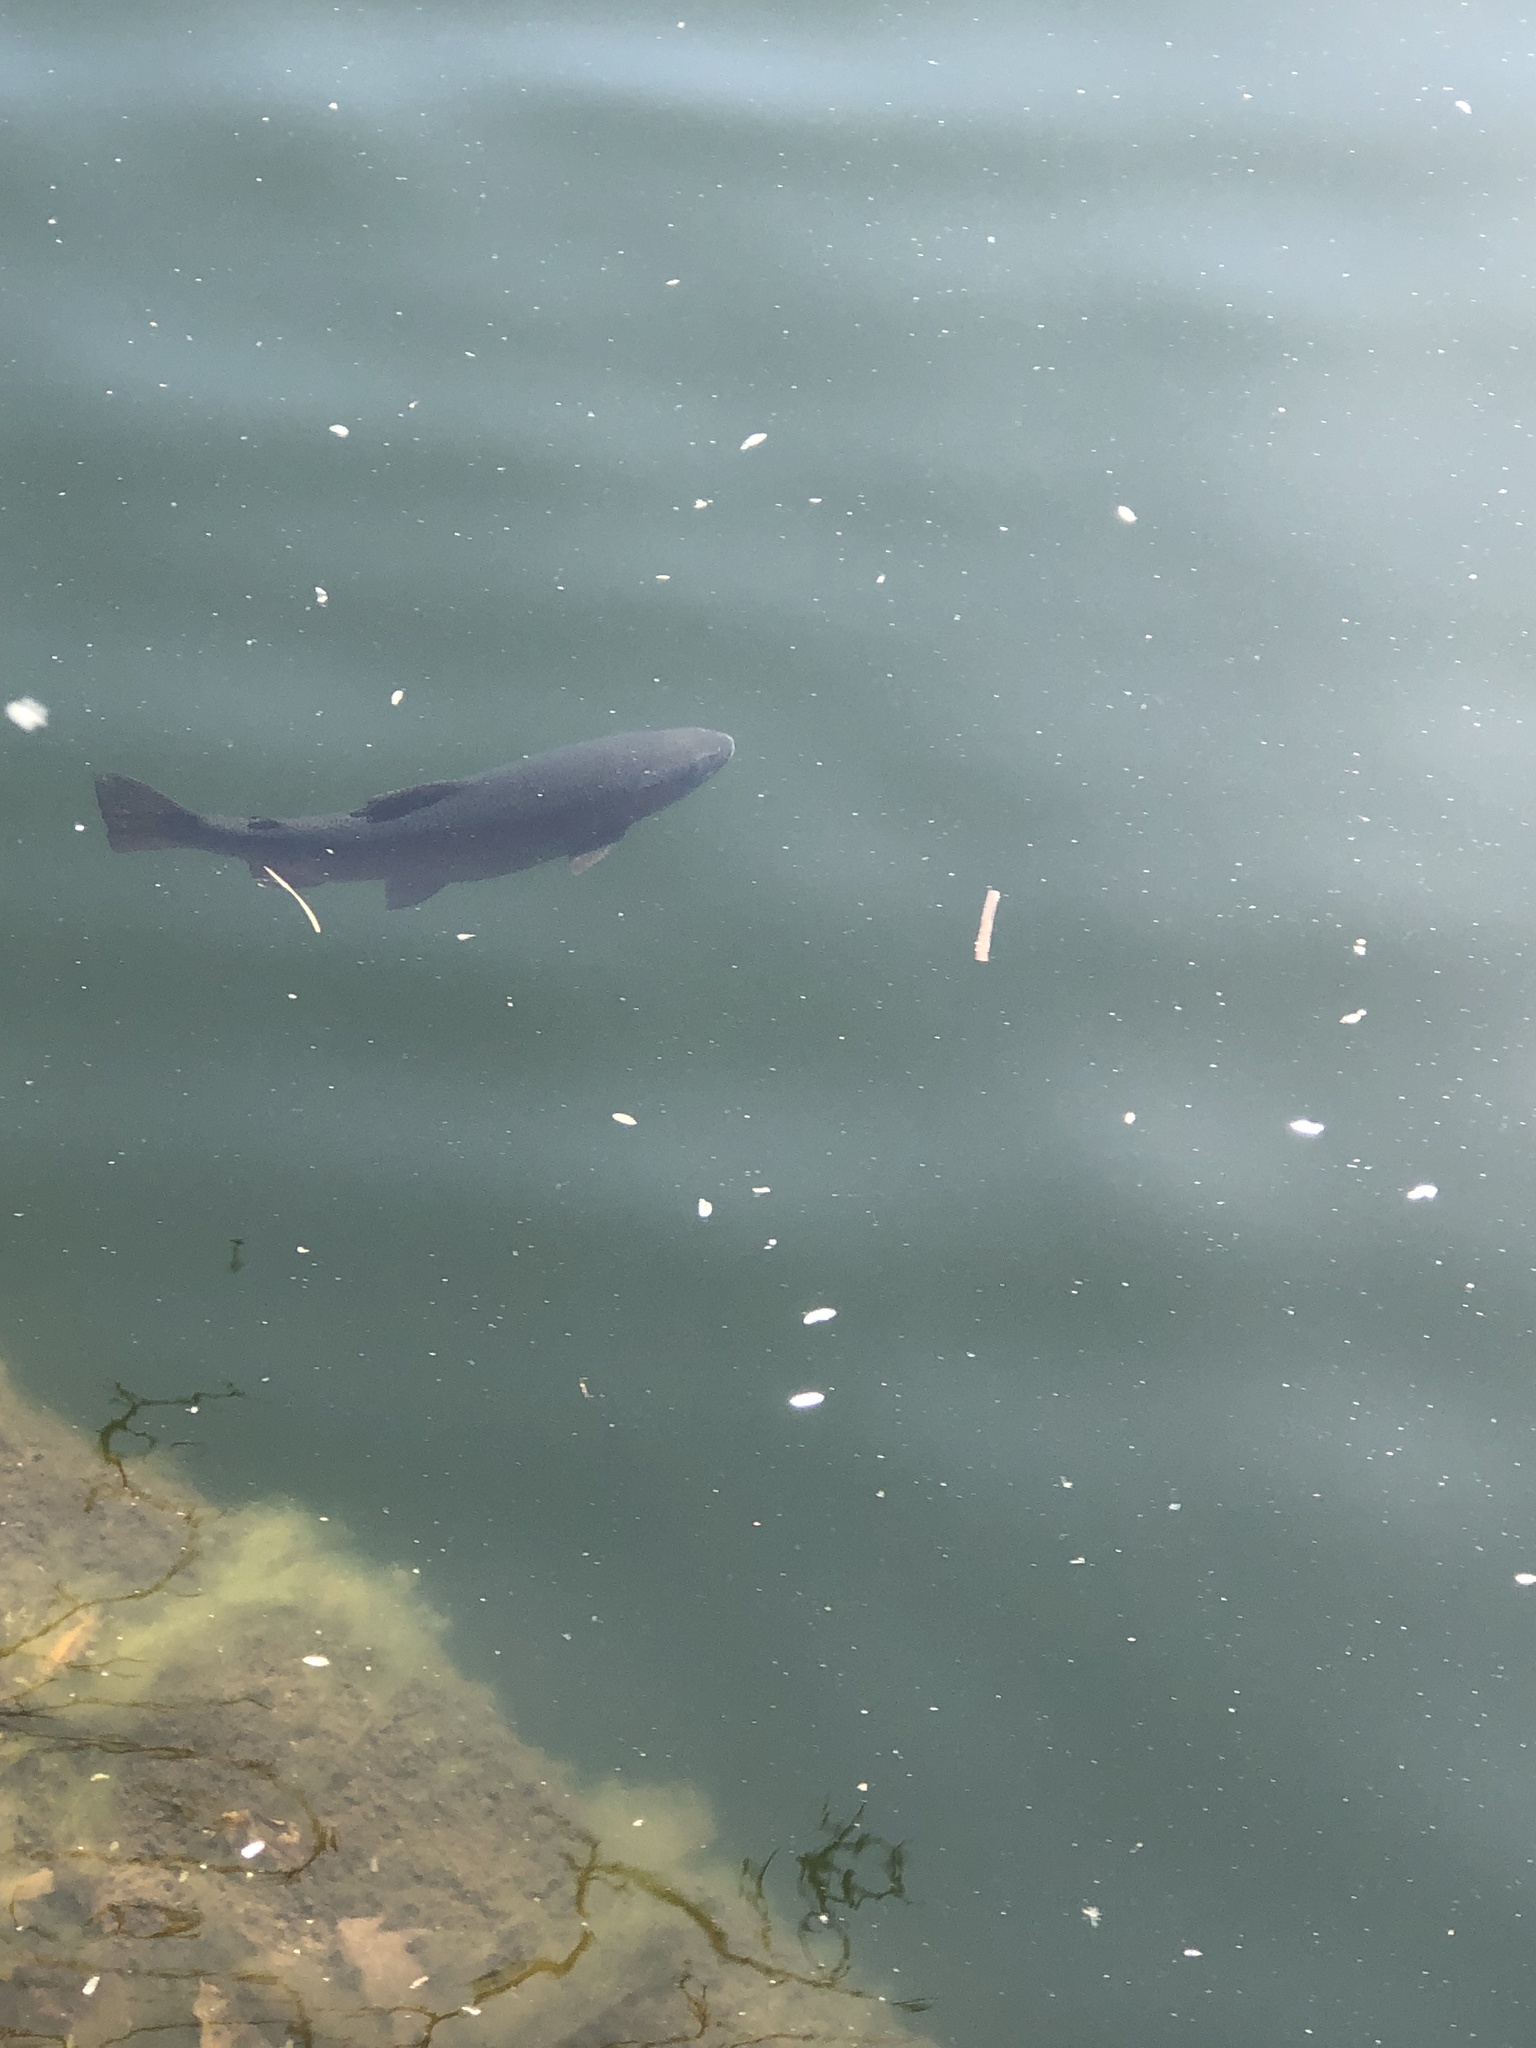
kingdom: Animalia
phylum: Chordata
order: Salmoniformes
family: Salmonidae
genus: Oncorhynchus
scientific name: Oncorhynchus mykiss
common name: Rainbow trout
